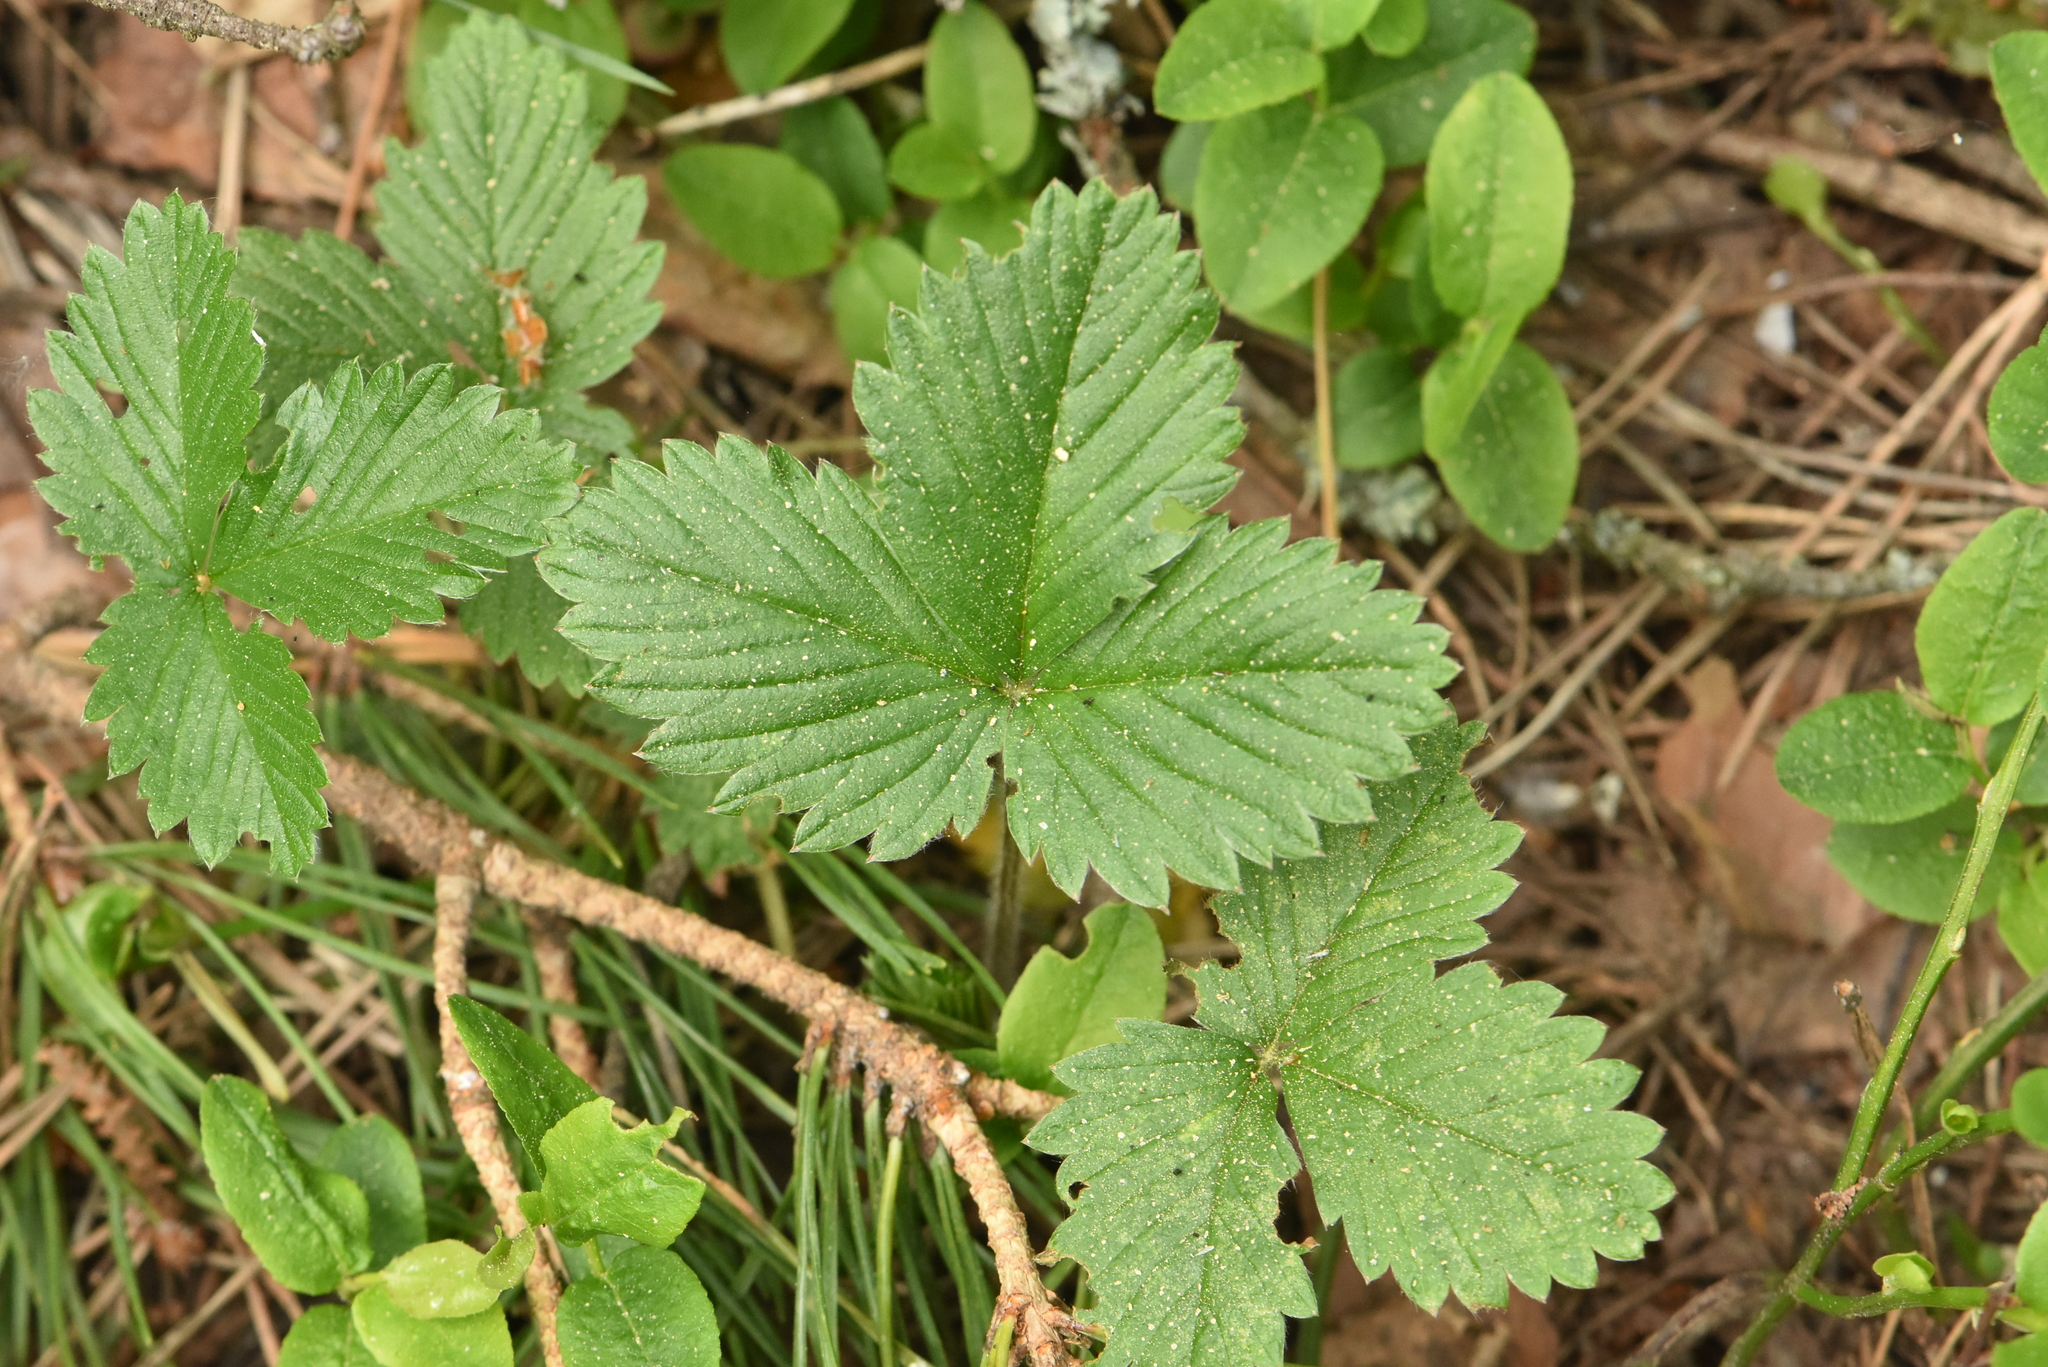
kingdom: Plantae
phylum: Tracheophyta
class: Magnoliopsida
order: Rosales
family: Rosaceae
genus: Fragaria
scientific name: Fragaria vesca
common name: Wild strawberry
